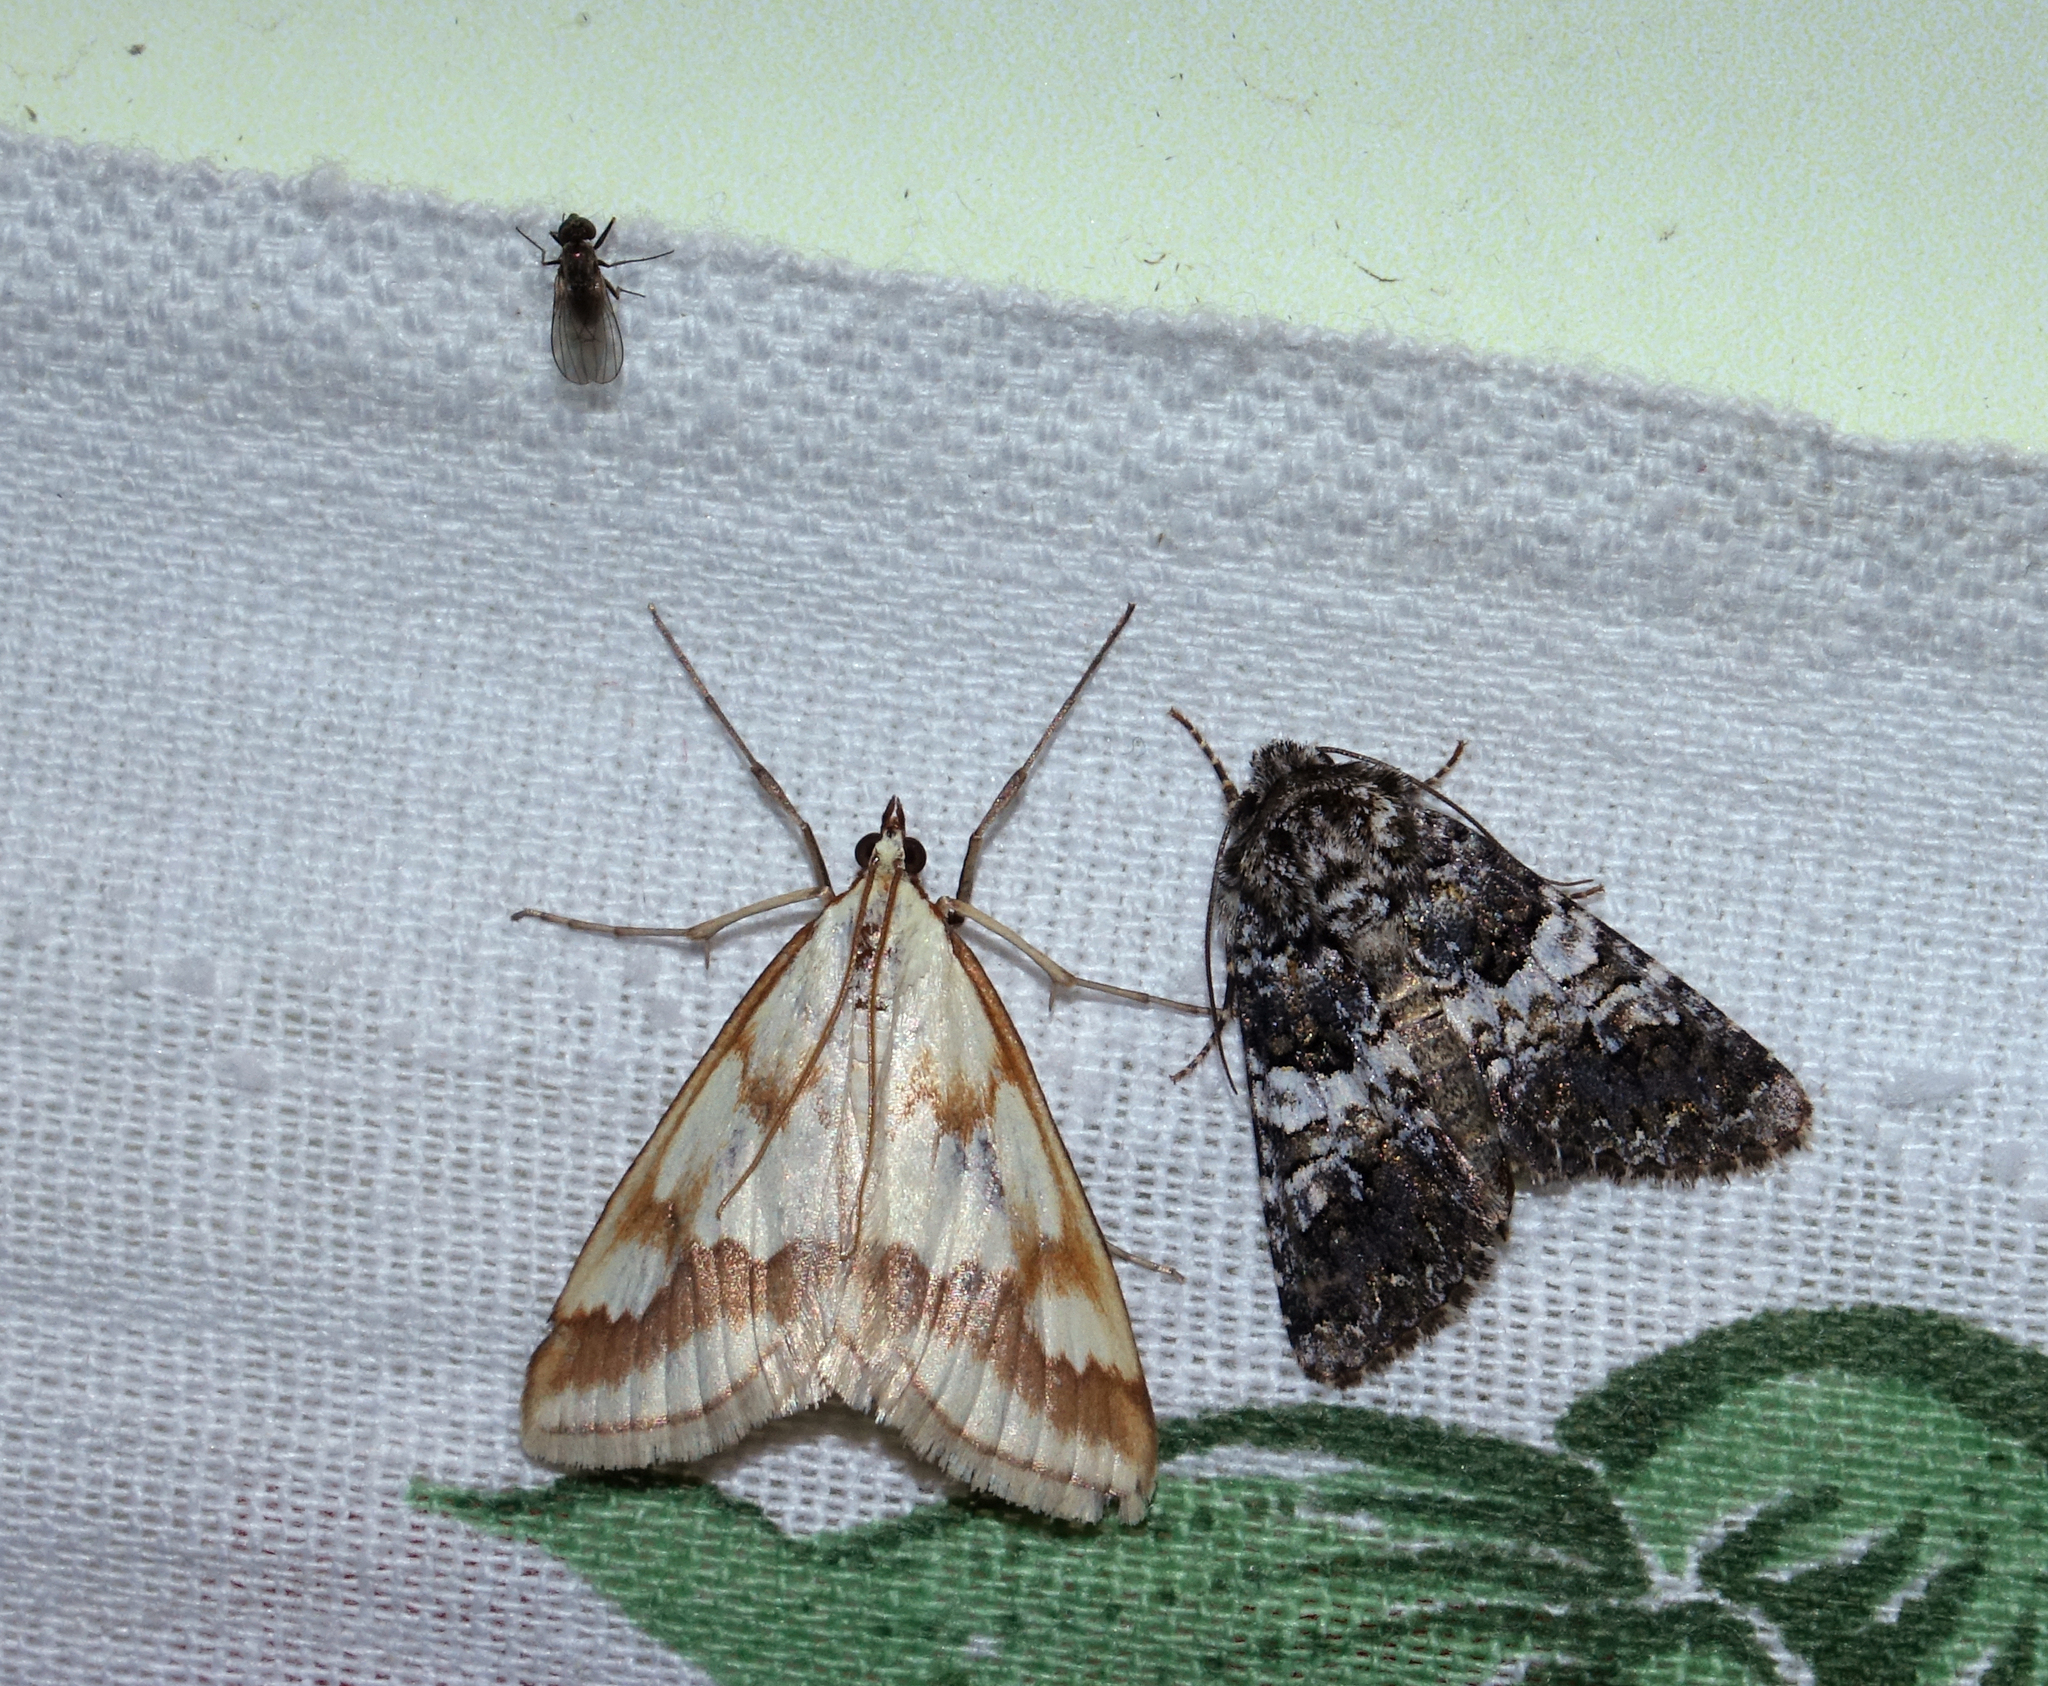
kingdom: Animalia
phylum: Arthropoda
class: Insecta
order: Lepidoptera
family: Noctuidae
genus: Hadena
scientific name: Hadena compta
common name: Varied coronet
